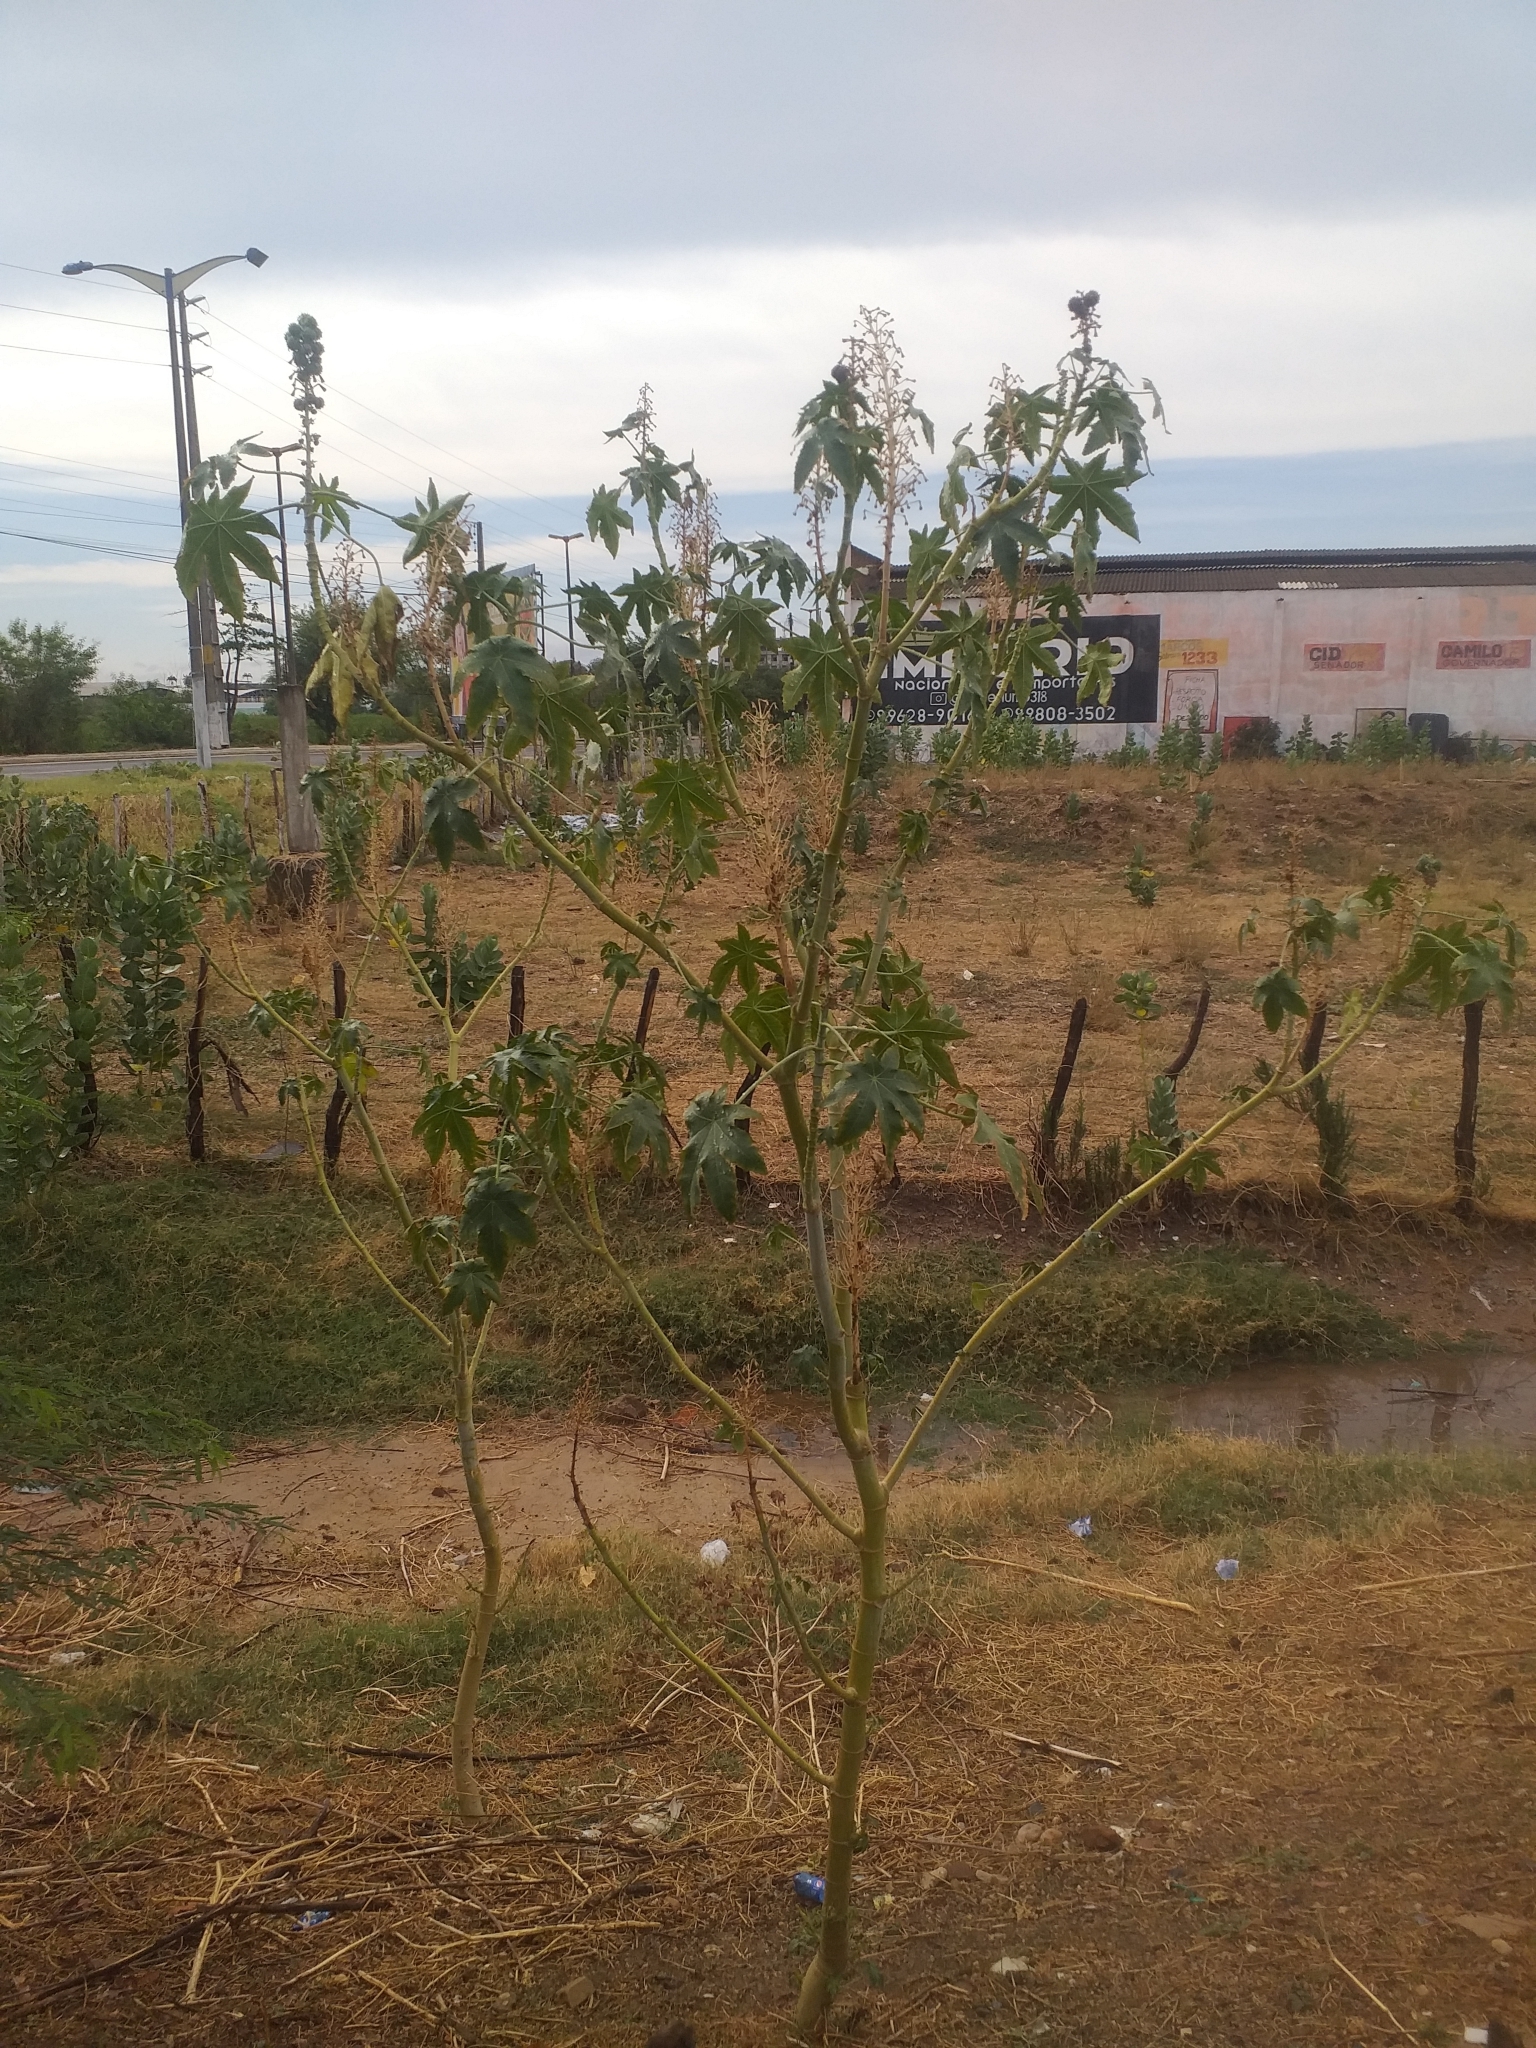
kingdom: Plantae
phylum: Tracheophyta
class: Magnoliopsida
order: Malpighiales
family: Euphorbiaceae
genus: Ricinus
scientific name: Ricinus communis
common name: Castor-oil-plant
